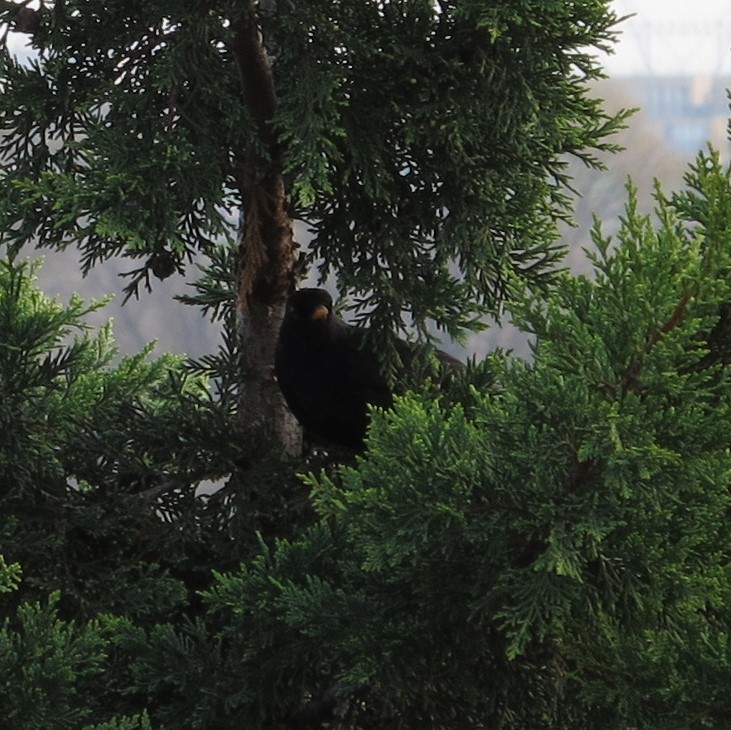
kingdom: Animalia
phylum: Chordata
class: Aves
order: Passeriformes
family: Turdidae
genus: Turdus
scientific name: Turdus merula
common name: Common blackbird
